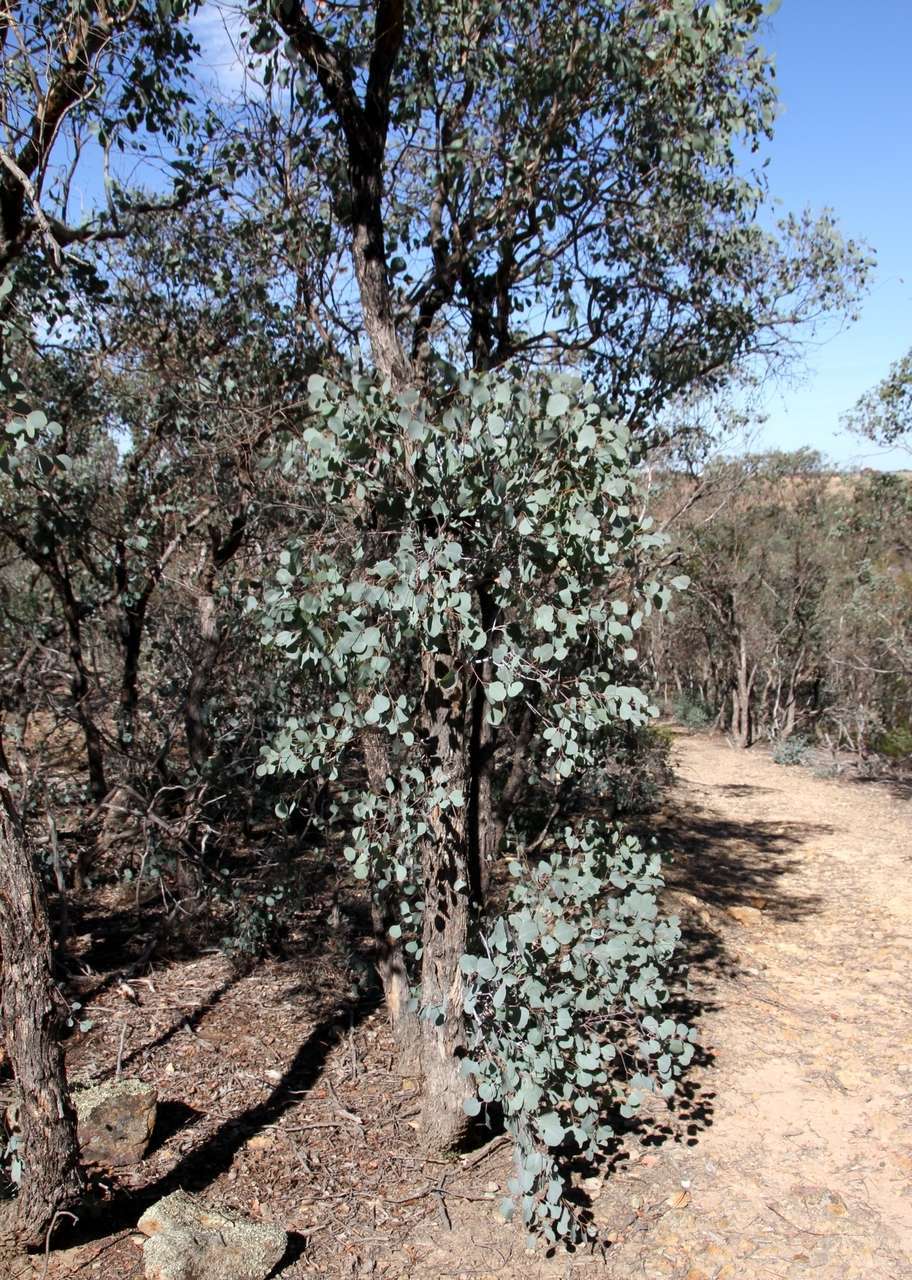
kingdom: Plantae
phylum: Tracheophyta
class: Magnoliopsida
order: Myrtales
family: Myrtaceae
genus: Eucalyptus
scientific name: Eucalyptus polyanthemos
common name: Red-box
